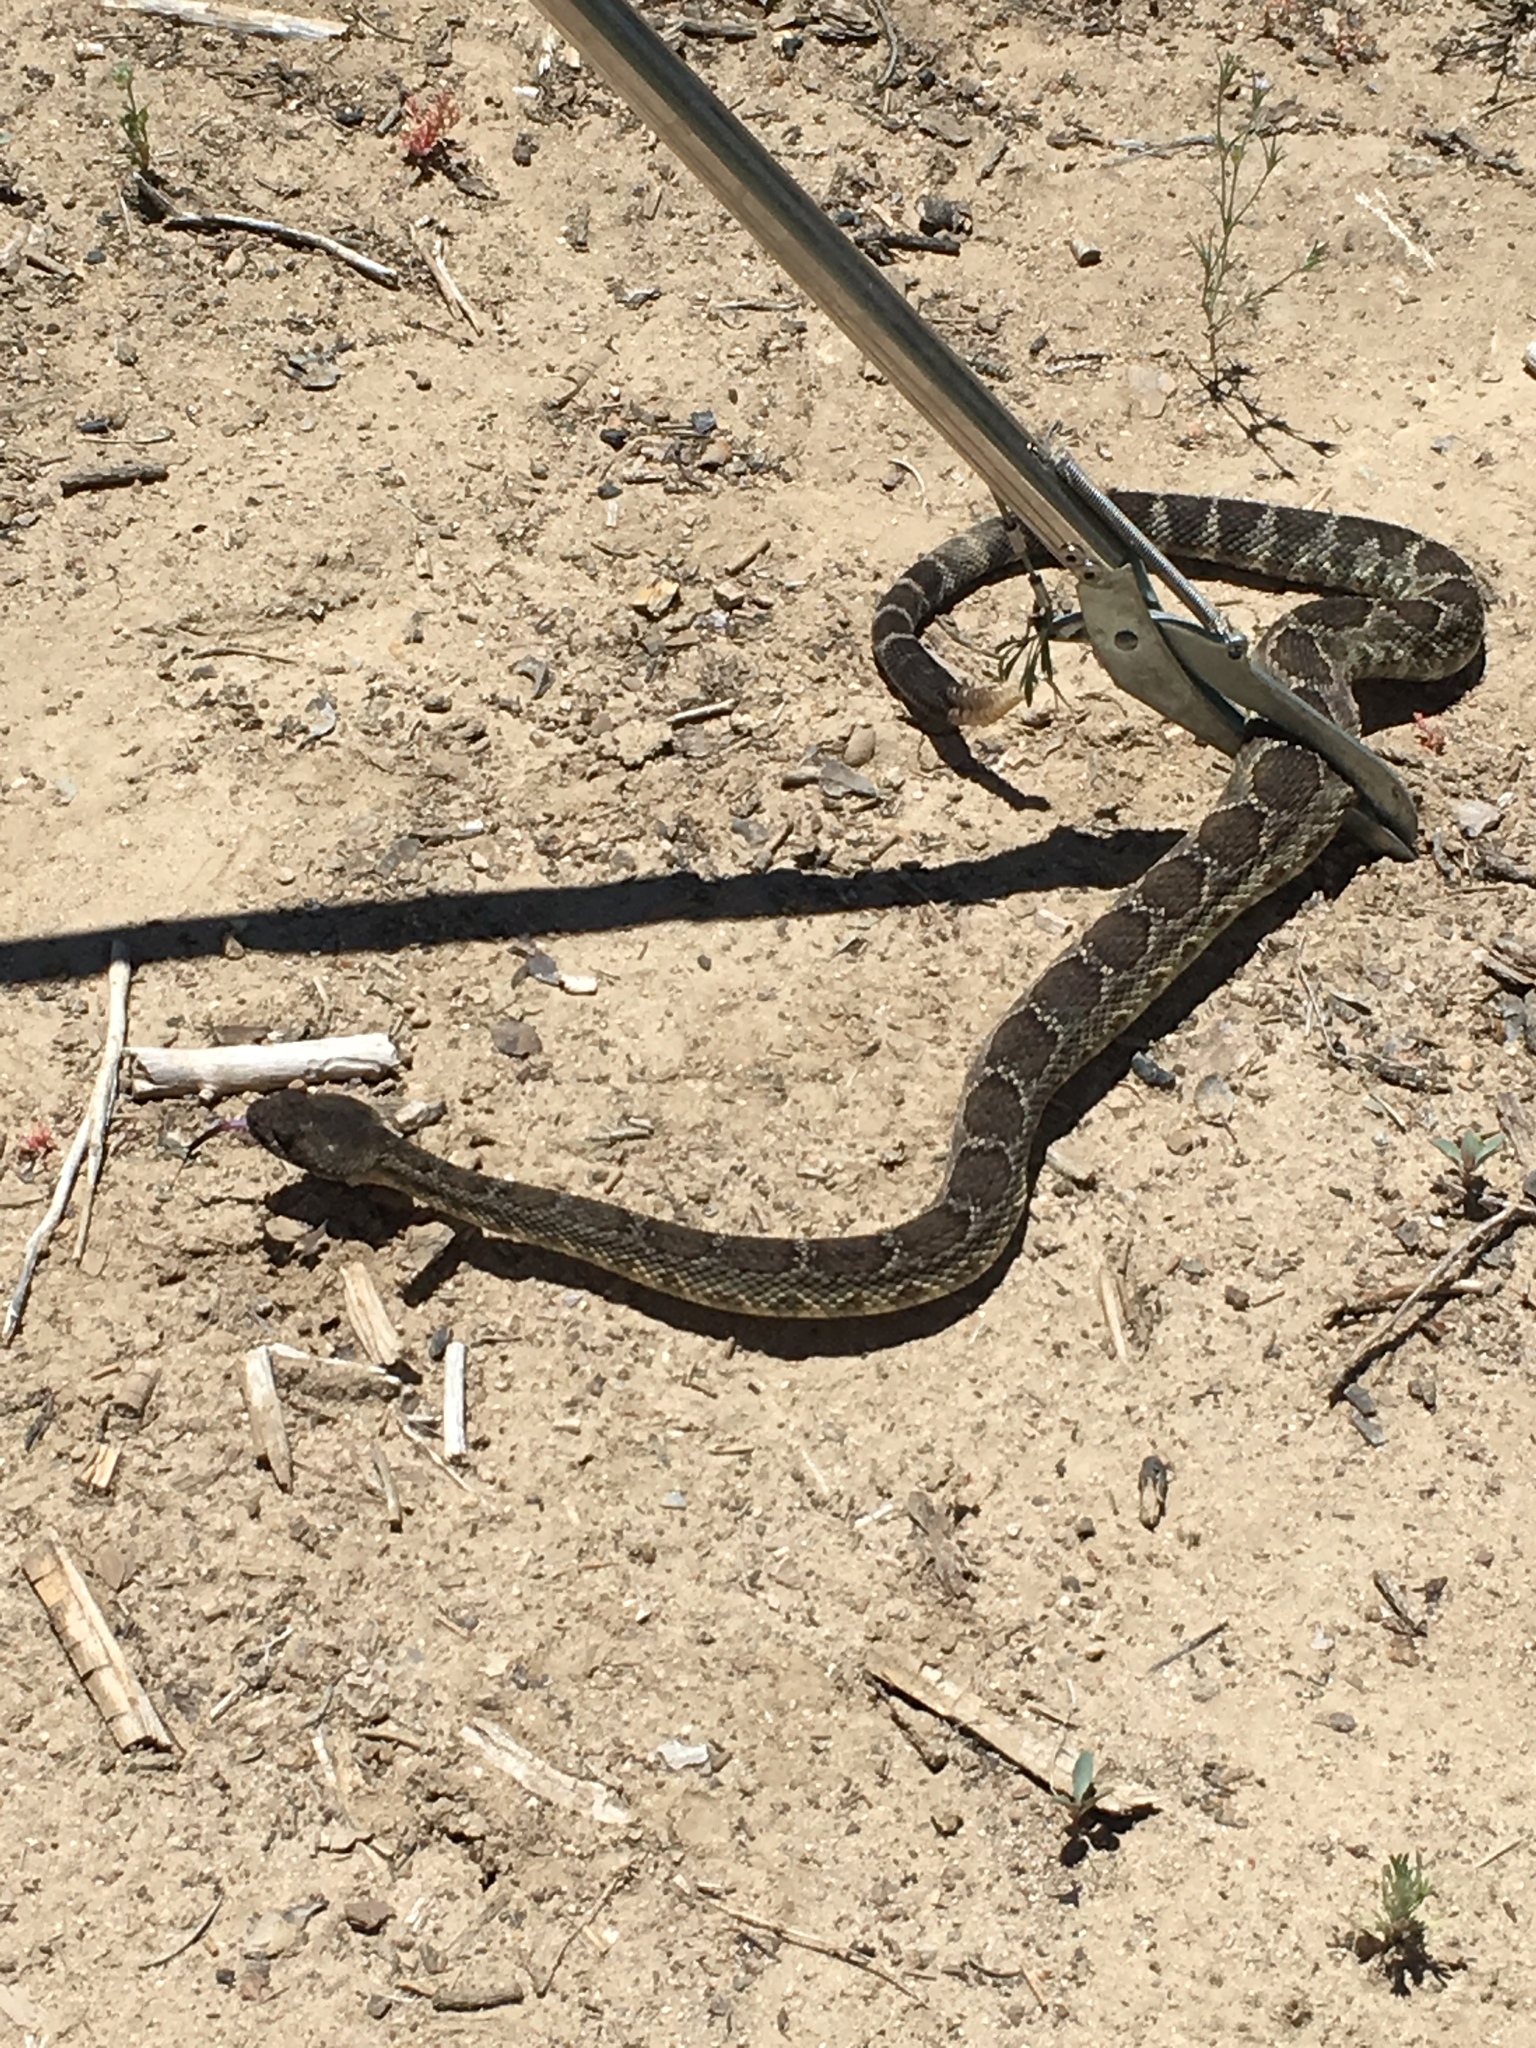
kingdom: Animalia
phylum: Chordata
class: Squamata
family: Viperidae
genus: Crotalus
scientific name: Crotalus oreganus
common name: Abyssus
